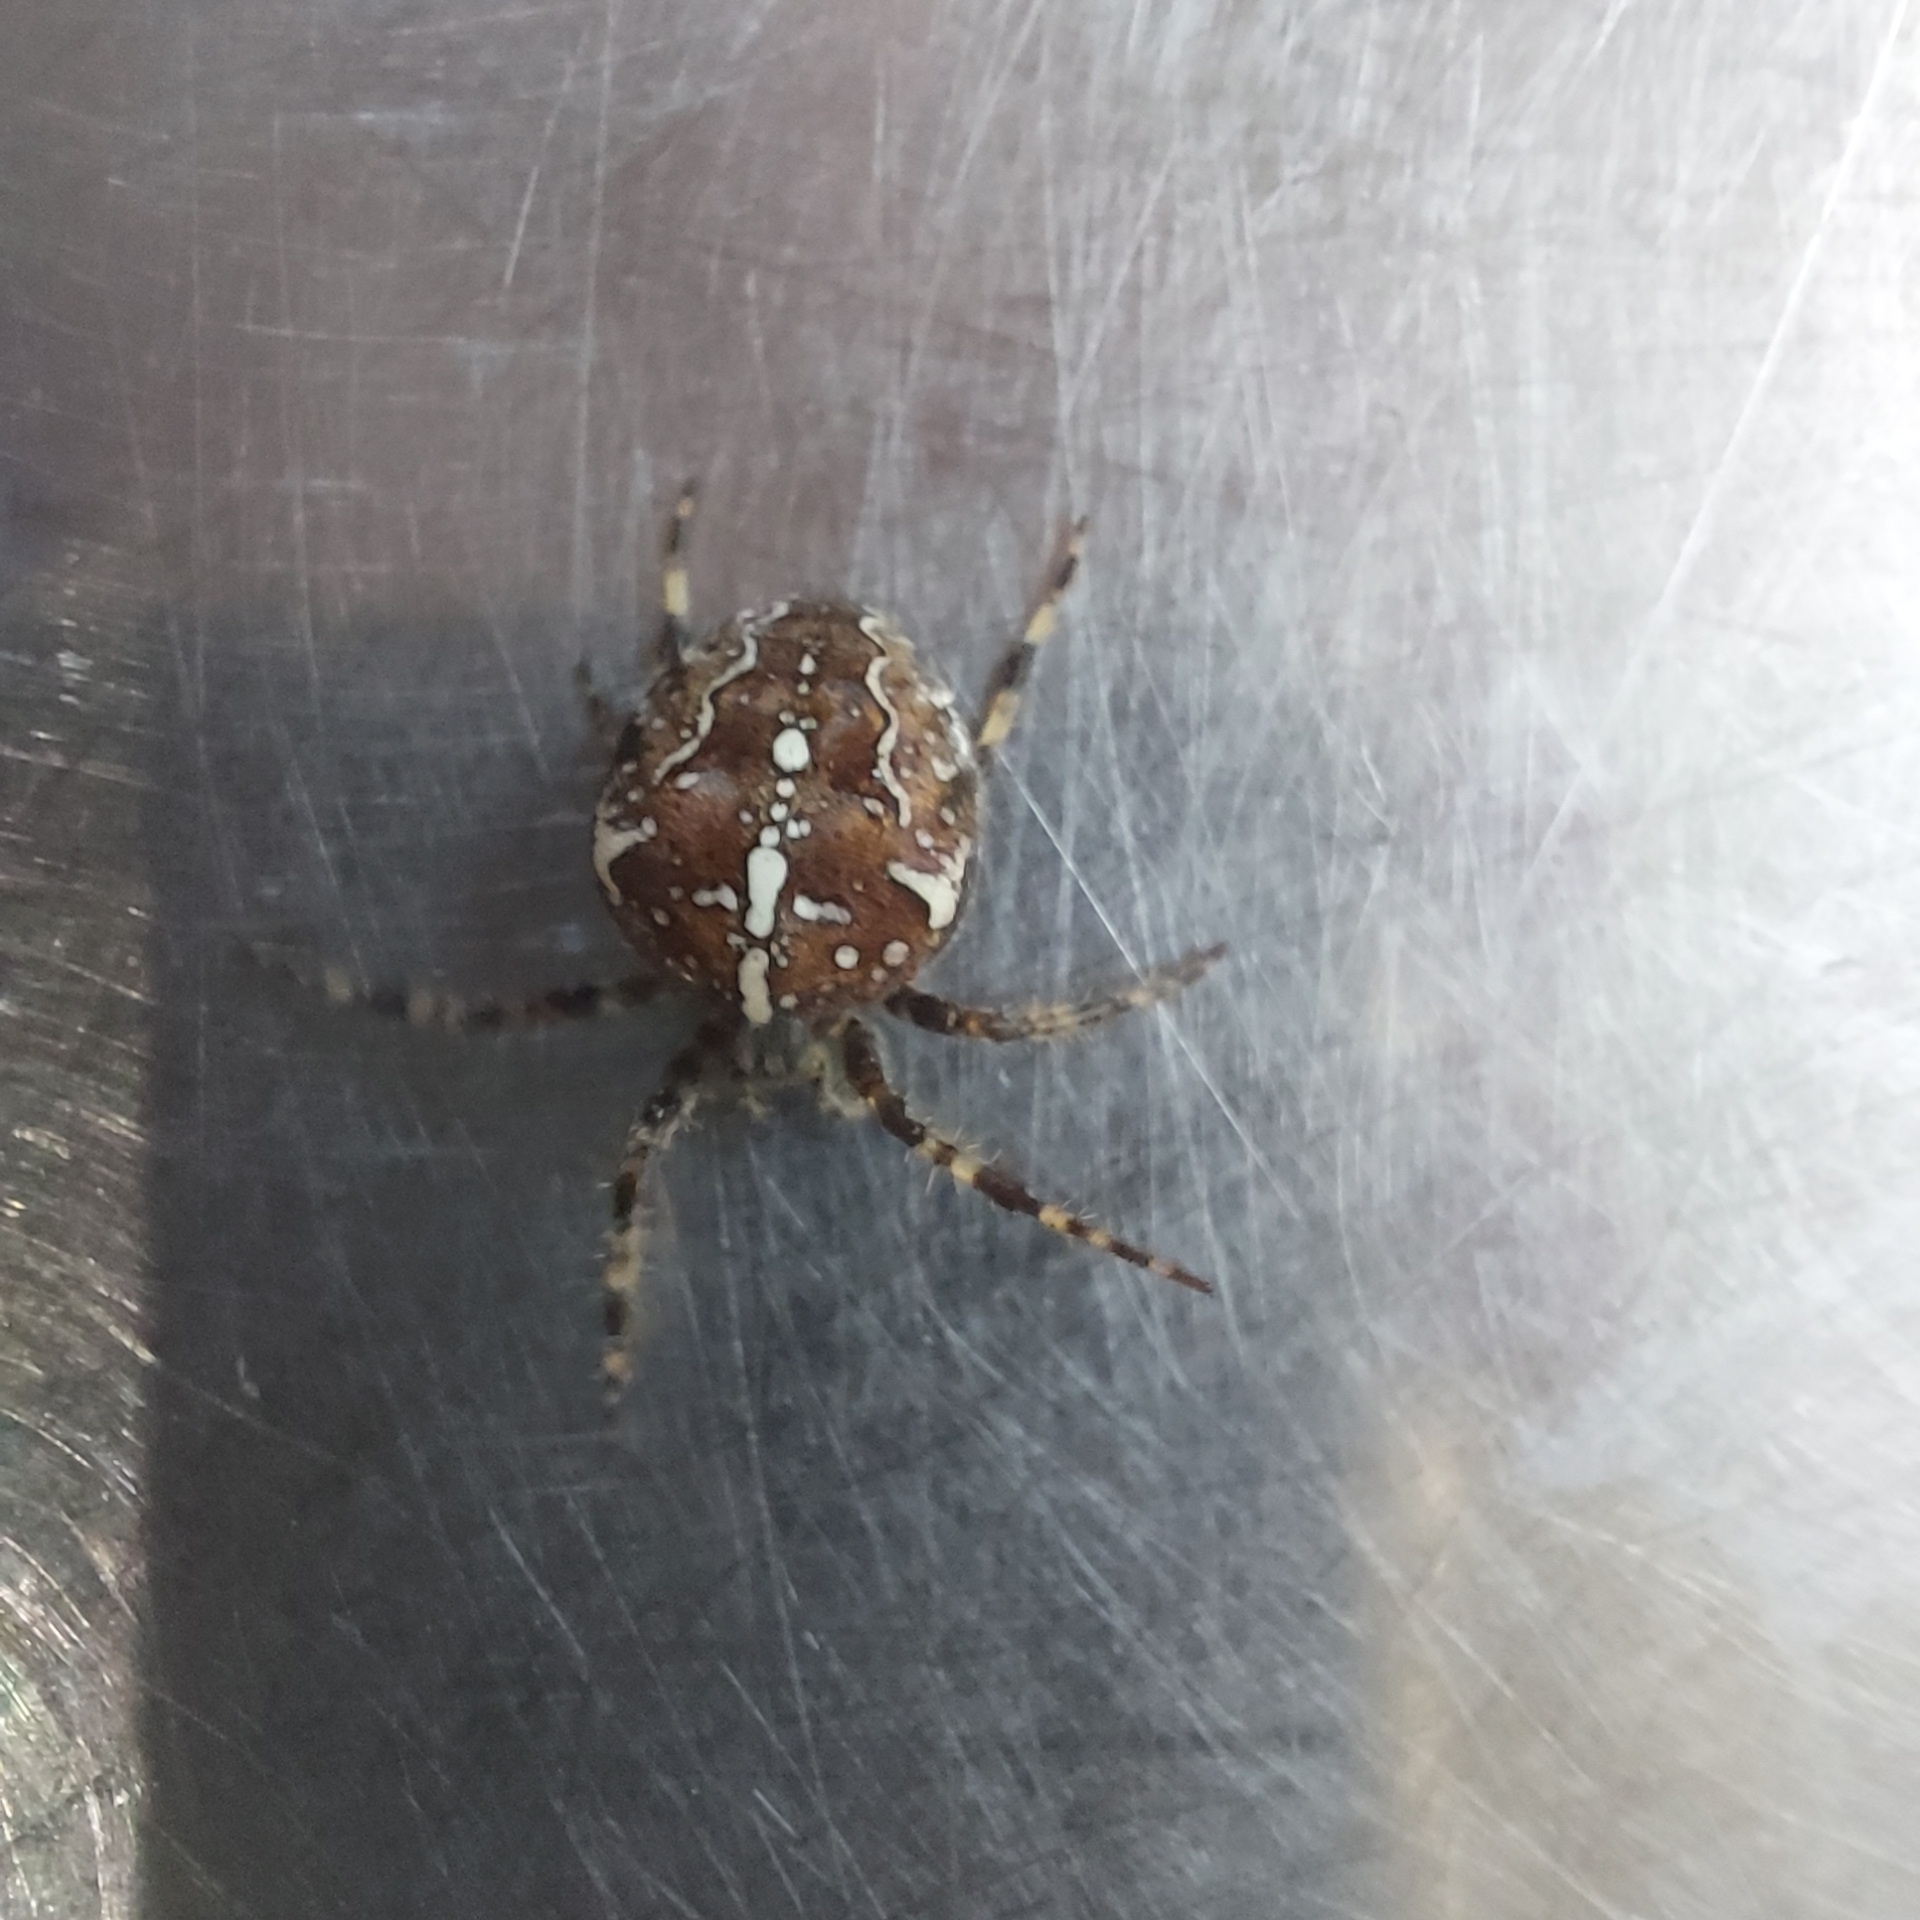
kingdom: Animalia
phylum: Arthropoda
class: Arachnida
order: Araneae
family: Araneidae
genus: Araneus
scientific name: Araneus diadematus
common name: Cross orbweaver
